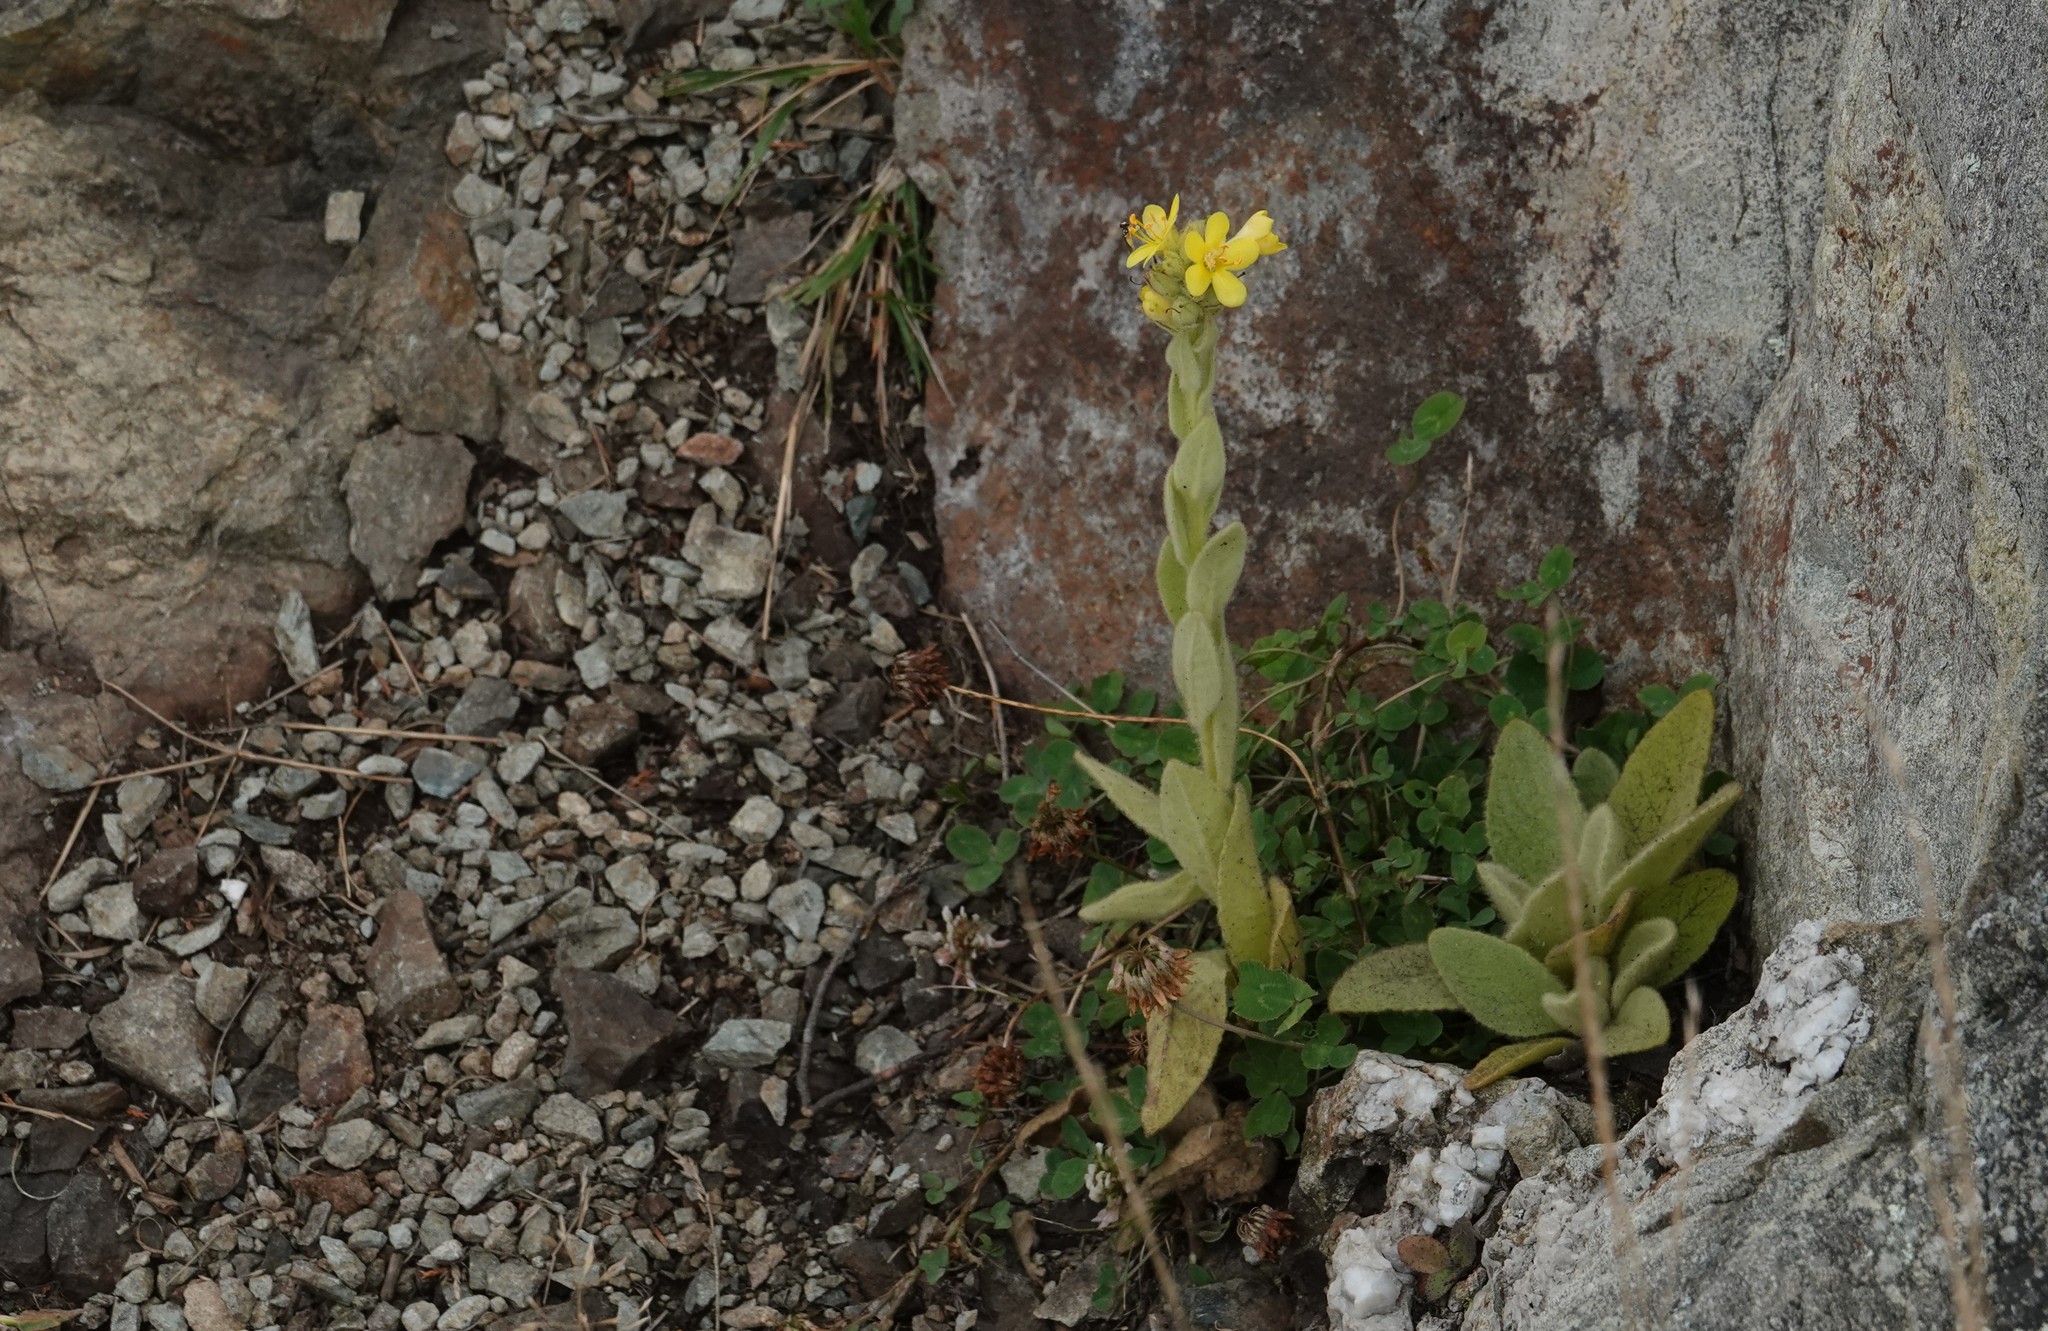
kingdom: Plantae
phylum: Tracheophyta
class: Magnoliopsida
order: Lamiales
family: Scrophulariaceae
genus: Verbascum
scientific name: Verbascum thapsus
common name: Common mullein
